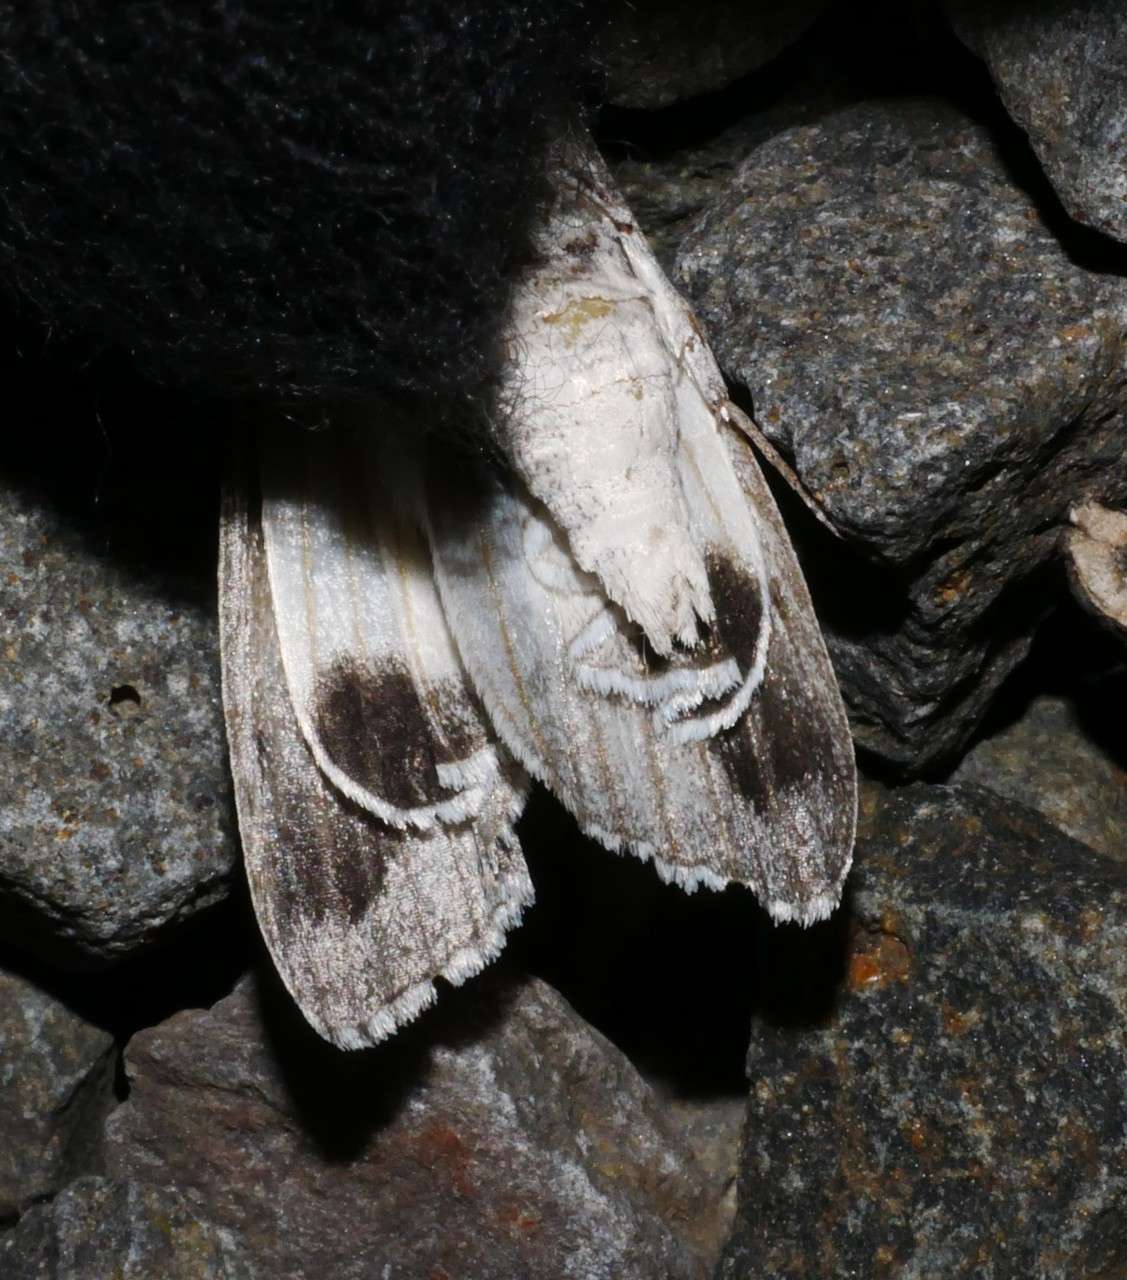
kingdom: Animalia
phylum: Arthropoda
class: Insecta
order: Lepidoptera
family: Geometridae
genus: Capusa
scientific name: Capusa senilis
